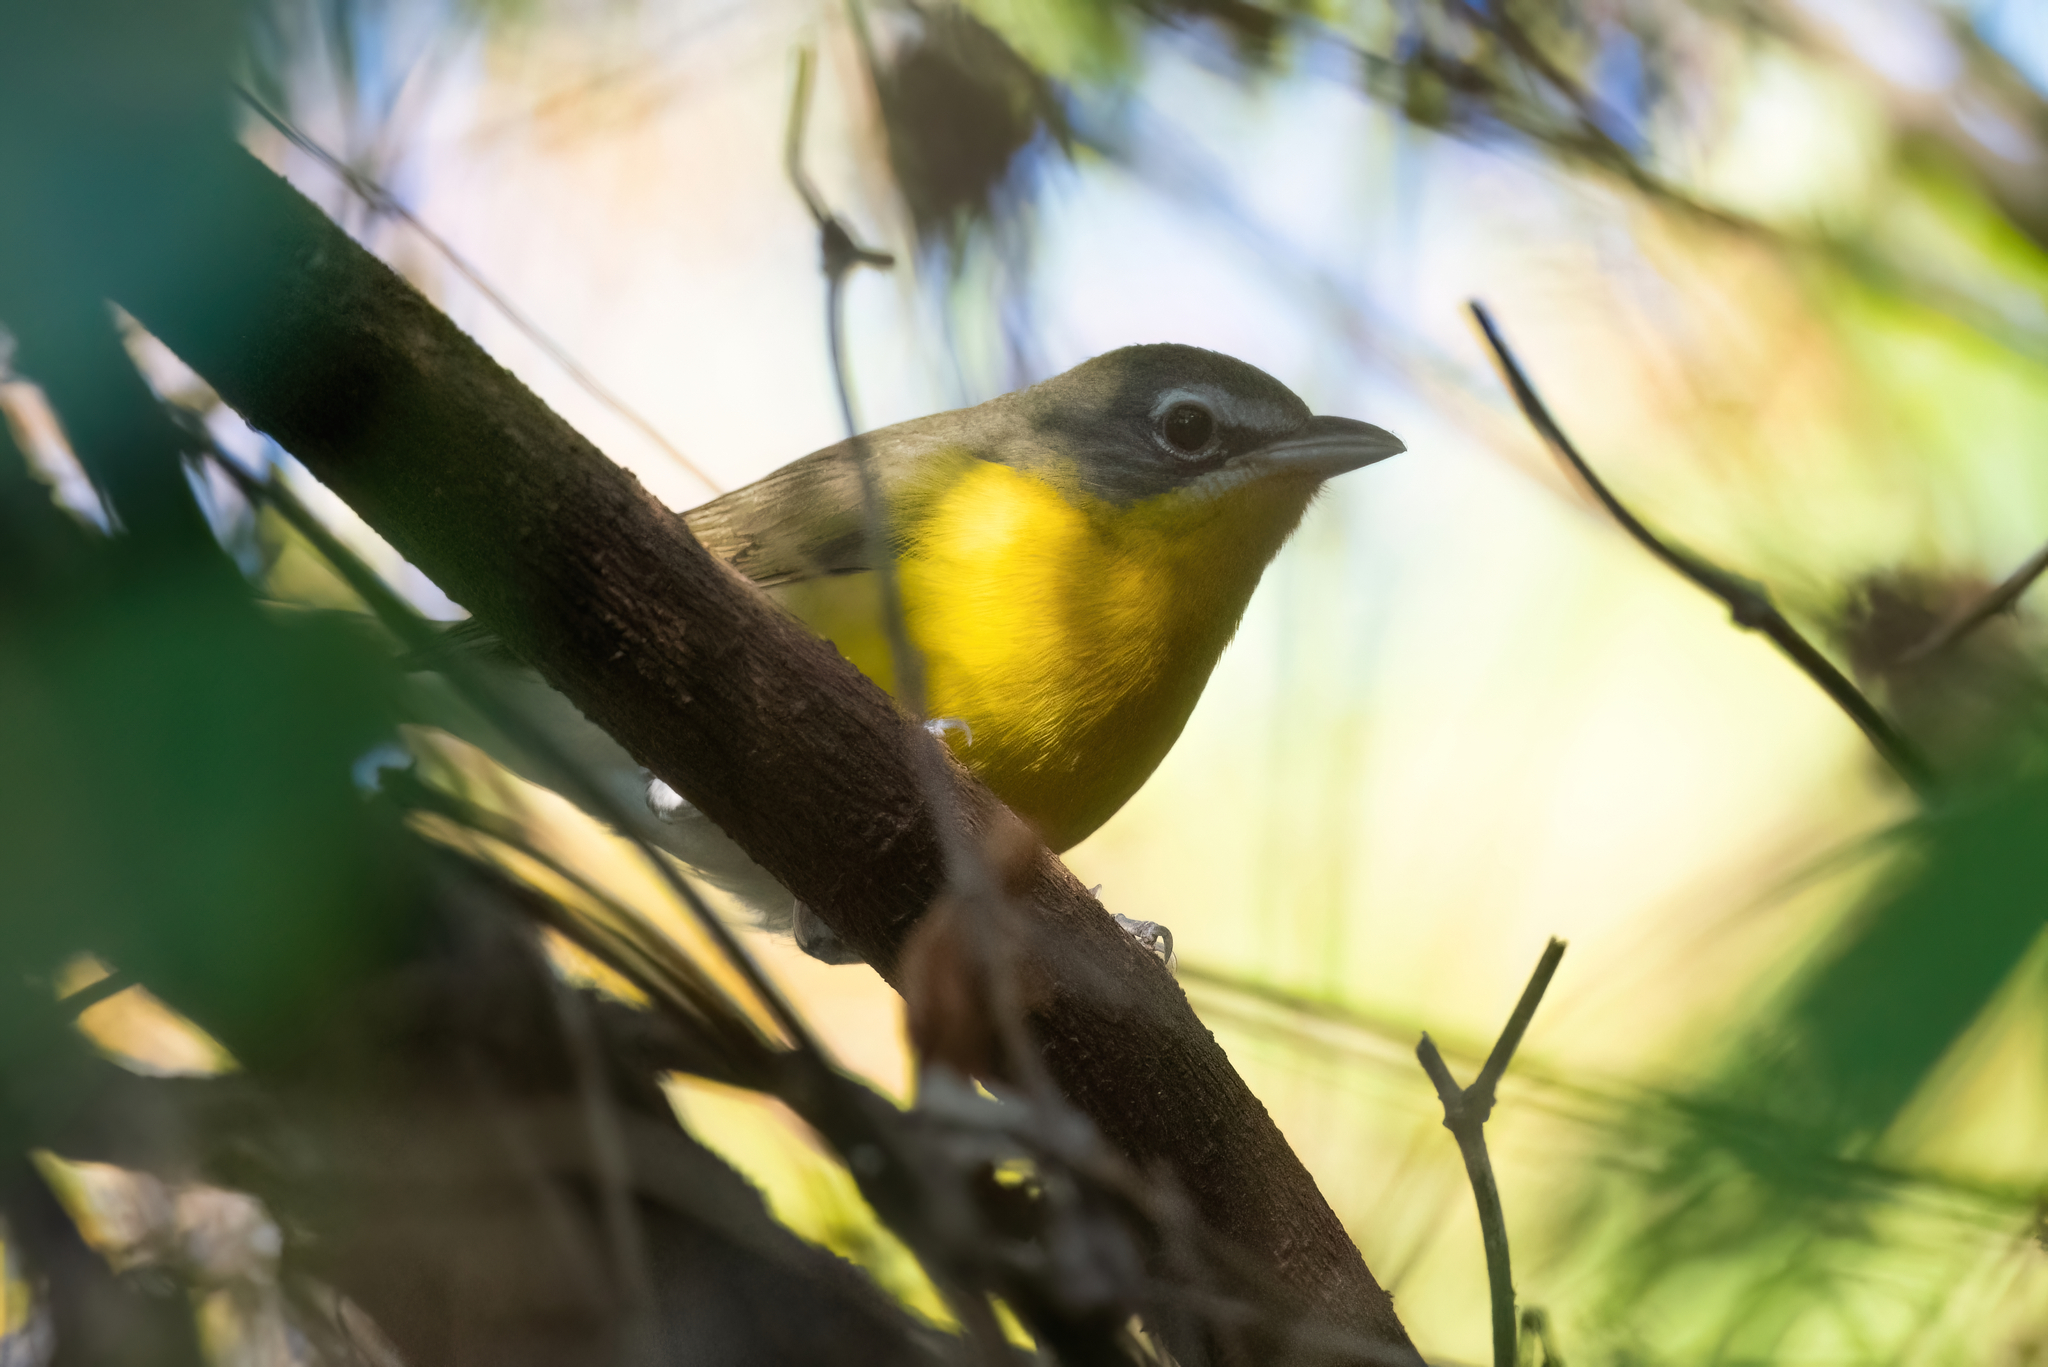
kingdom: Animalia
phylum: Chordata
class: Aves
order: Passeriformes
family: Parulidae
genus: Icteria
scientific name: Icteria virens
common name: Yellow-breasted chat
